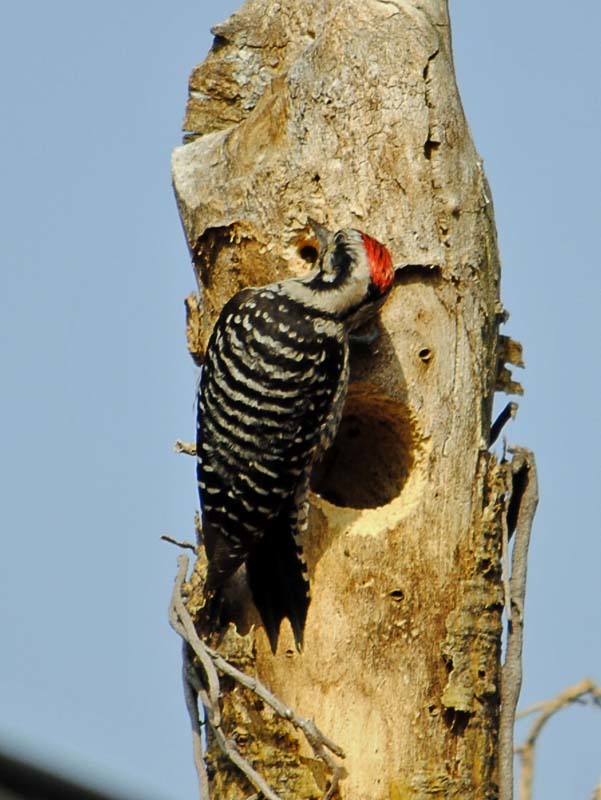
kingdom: Animalia
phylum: Chordata
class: Aves
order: Piciformes
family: Picidae
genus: Dryobates
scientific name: Dryobates scalaris
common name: Ladder-backed woodpecker
